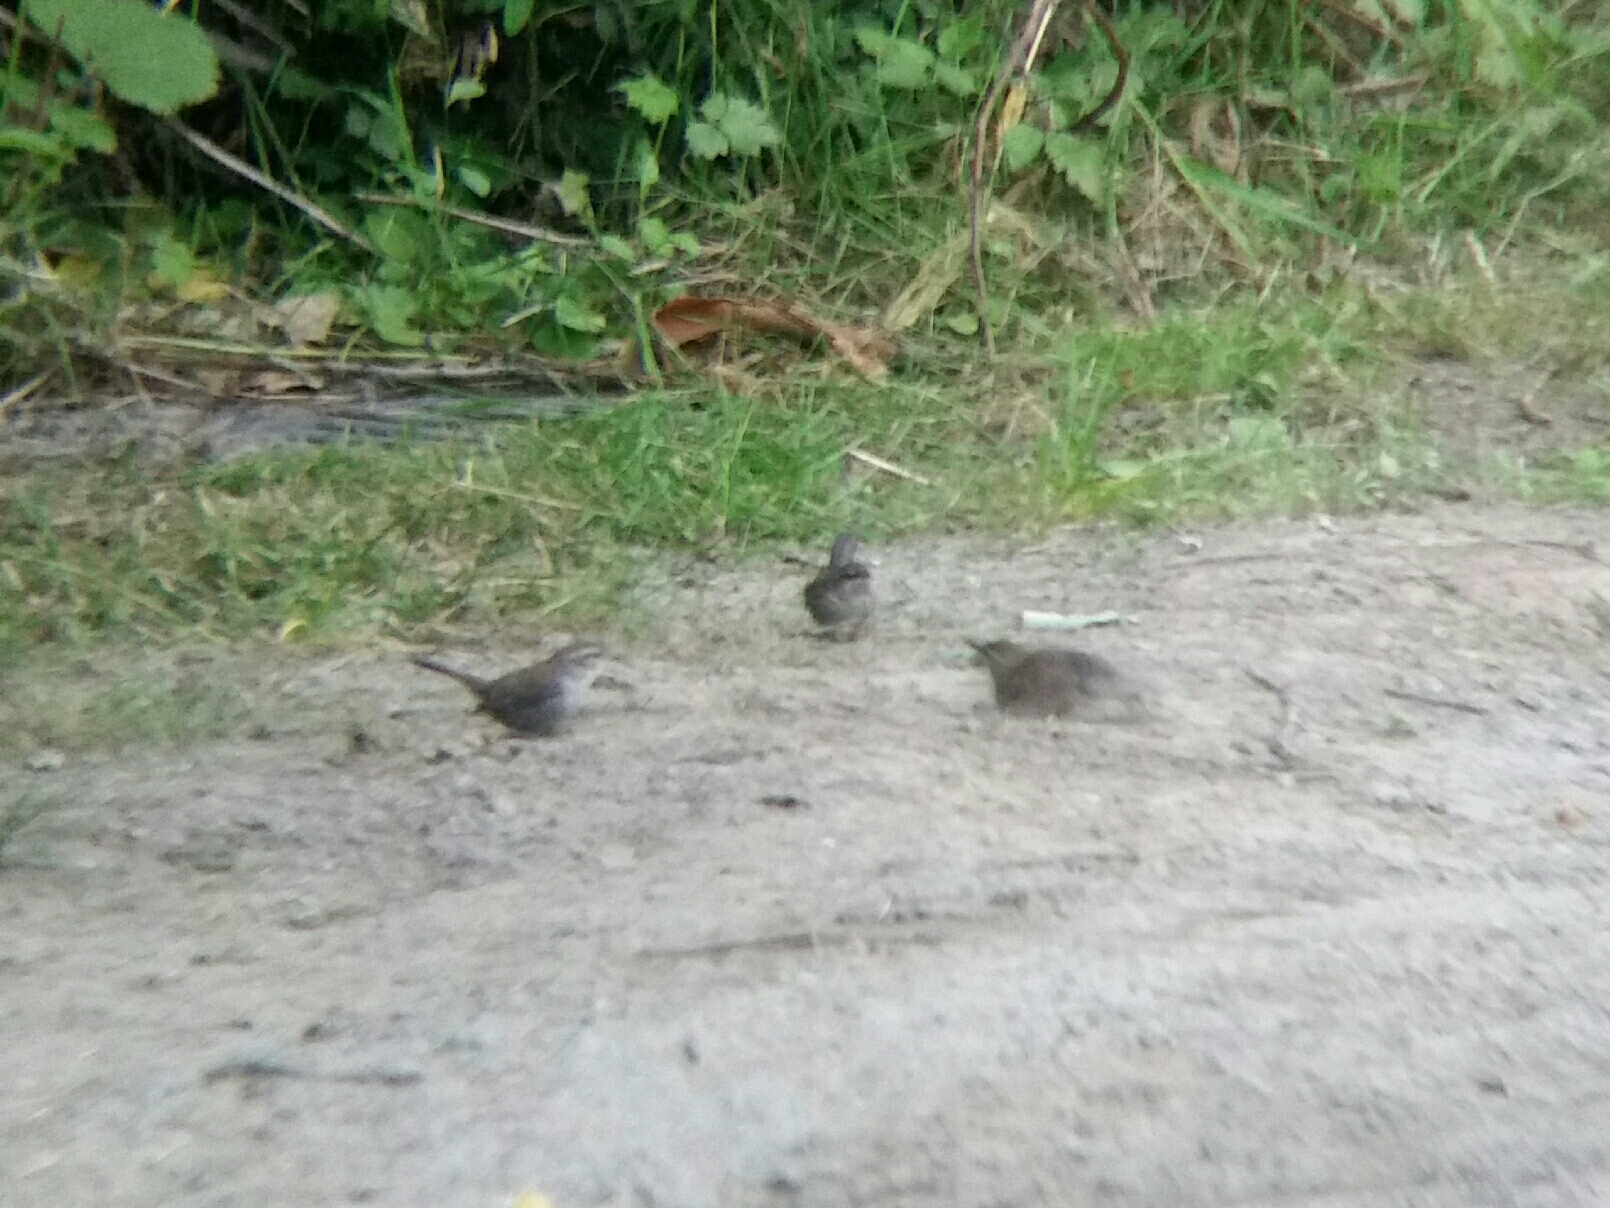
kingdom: Animalia
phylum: Chordata
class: Aves
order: Passeriformes
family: Troglodytidae
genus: Thryomanes
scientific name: Thryomanes bewickii
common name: Bewick's wren
